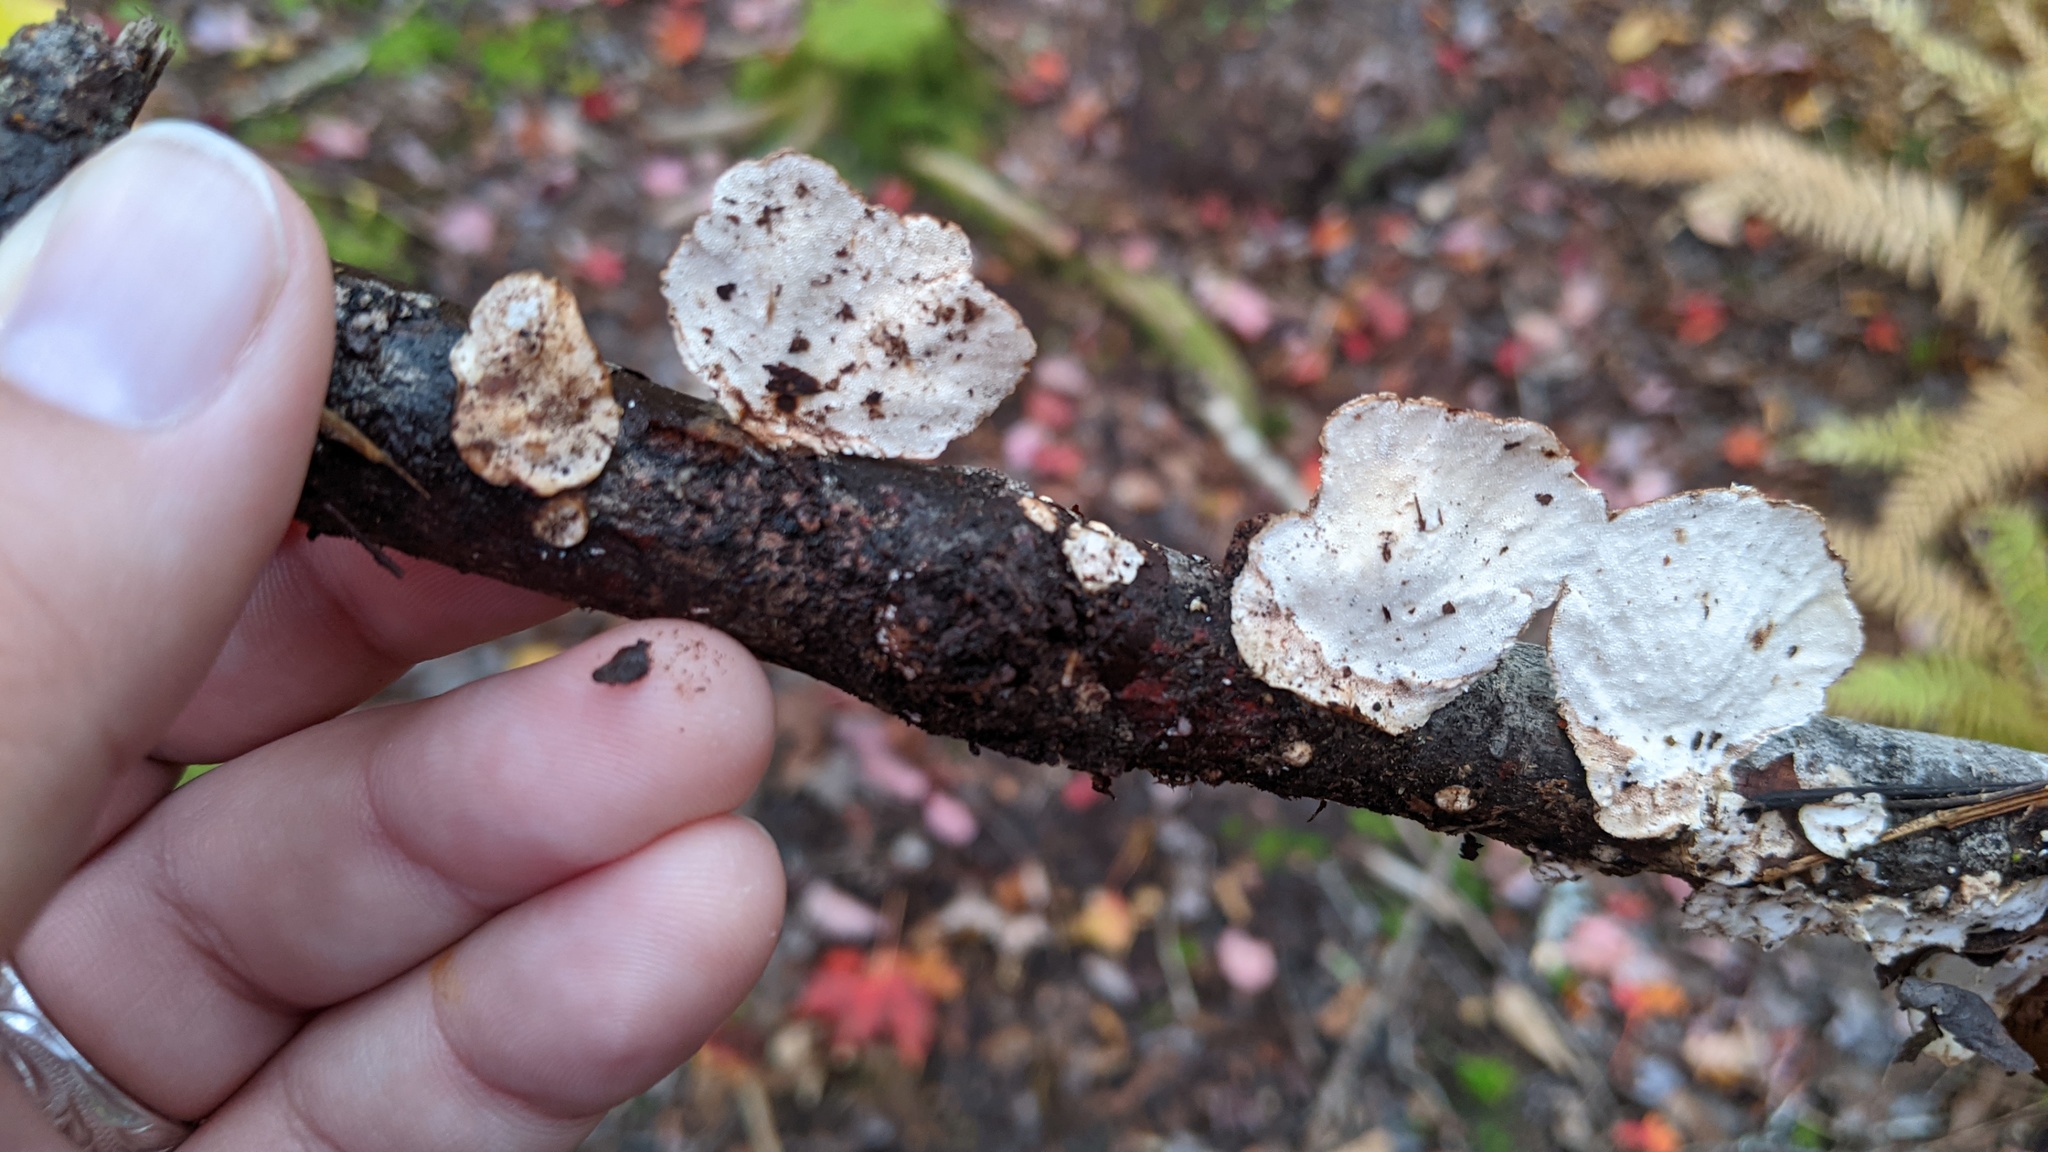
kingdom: Fungi
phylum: Basidiomycota
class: Agaricomycetes
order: Polyporales
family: Polyporaceae
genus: Trametes
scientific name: Trametes versicolor
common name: Turkeytail
